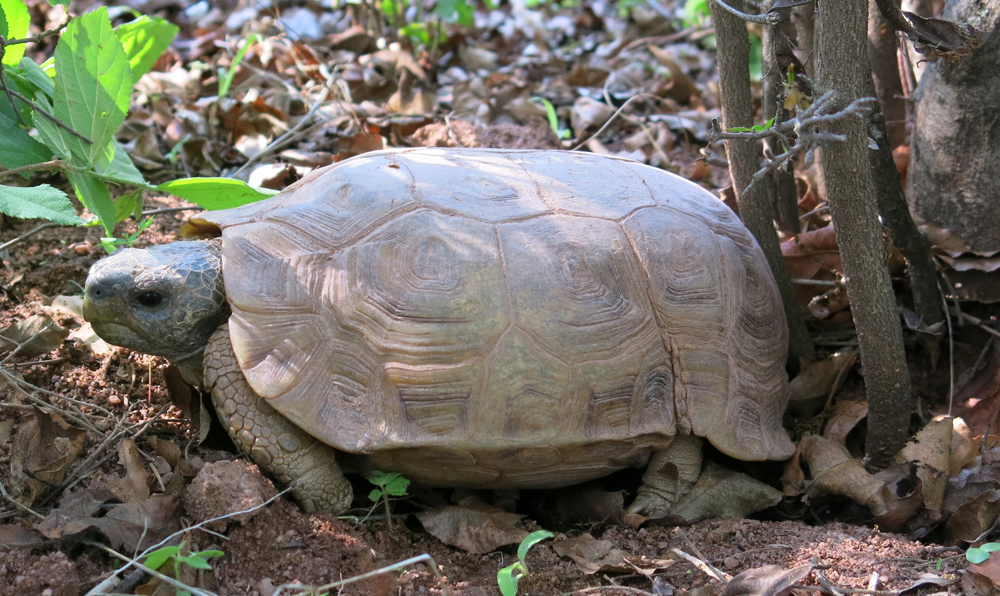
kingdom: Animalia
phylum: Chordata
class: Testudines
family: Testudinidae
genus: Kinixys
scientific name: Kinixys spekii
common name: Speke's hingeback tortoise
